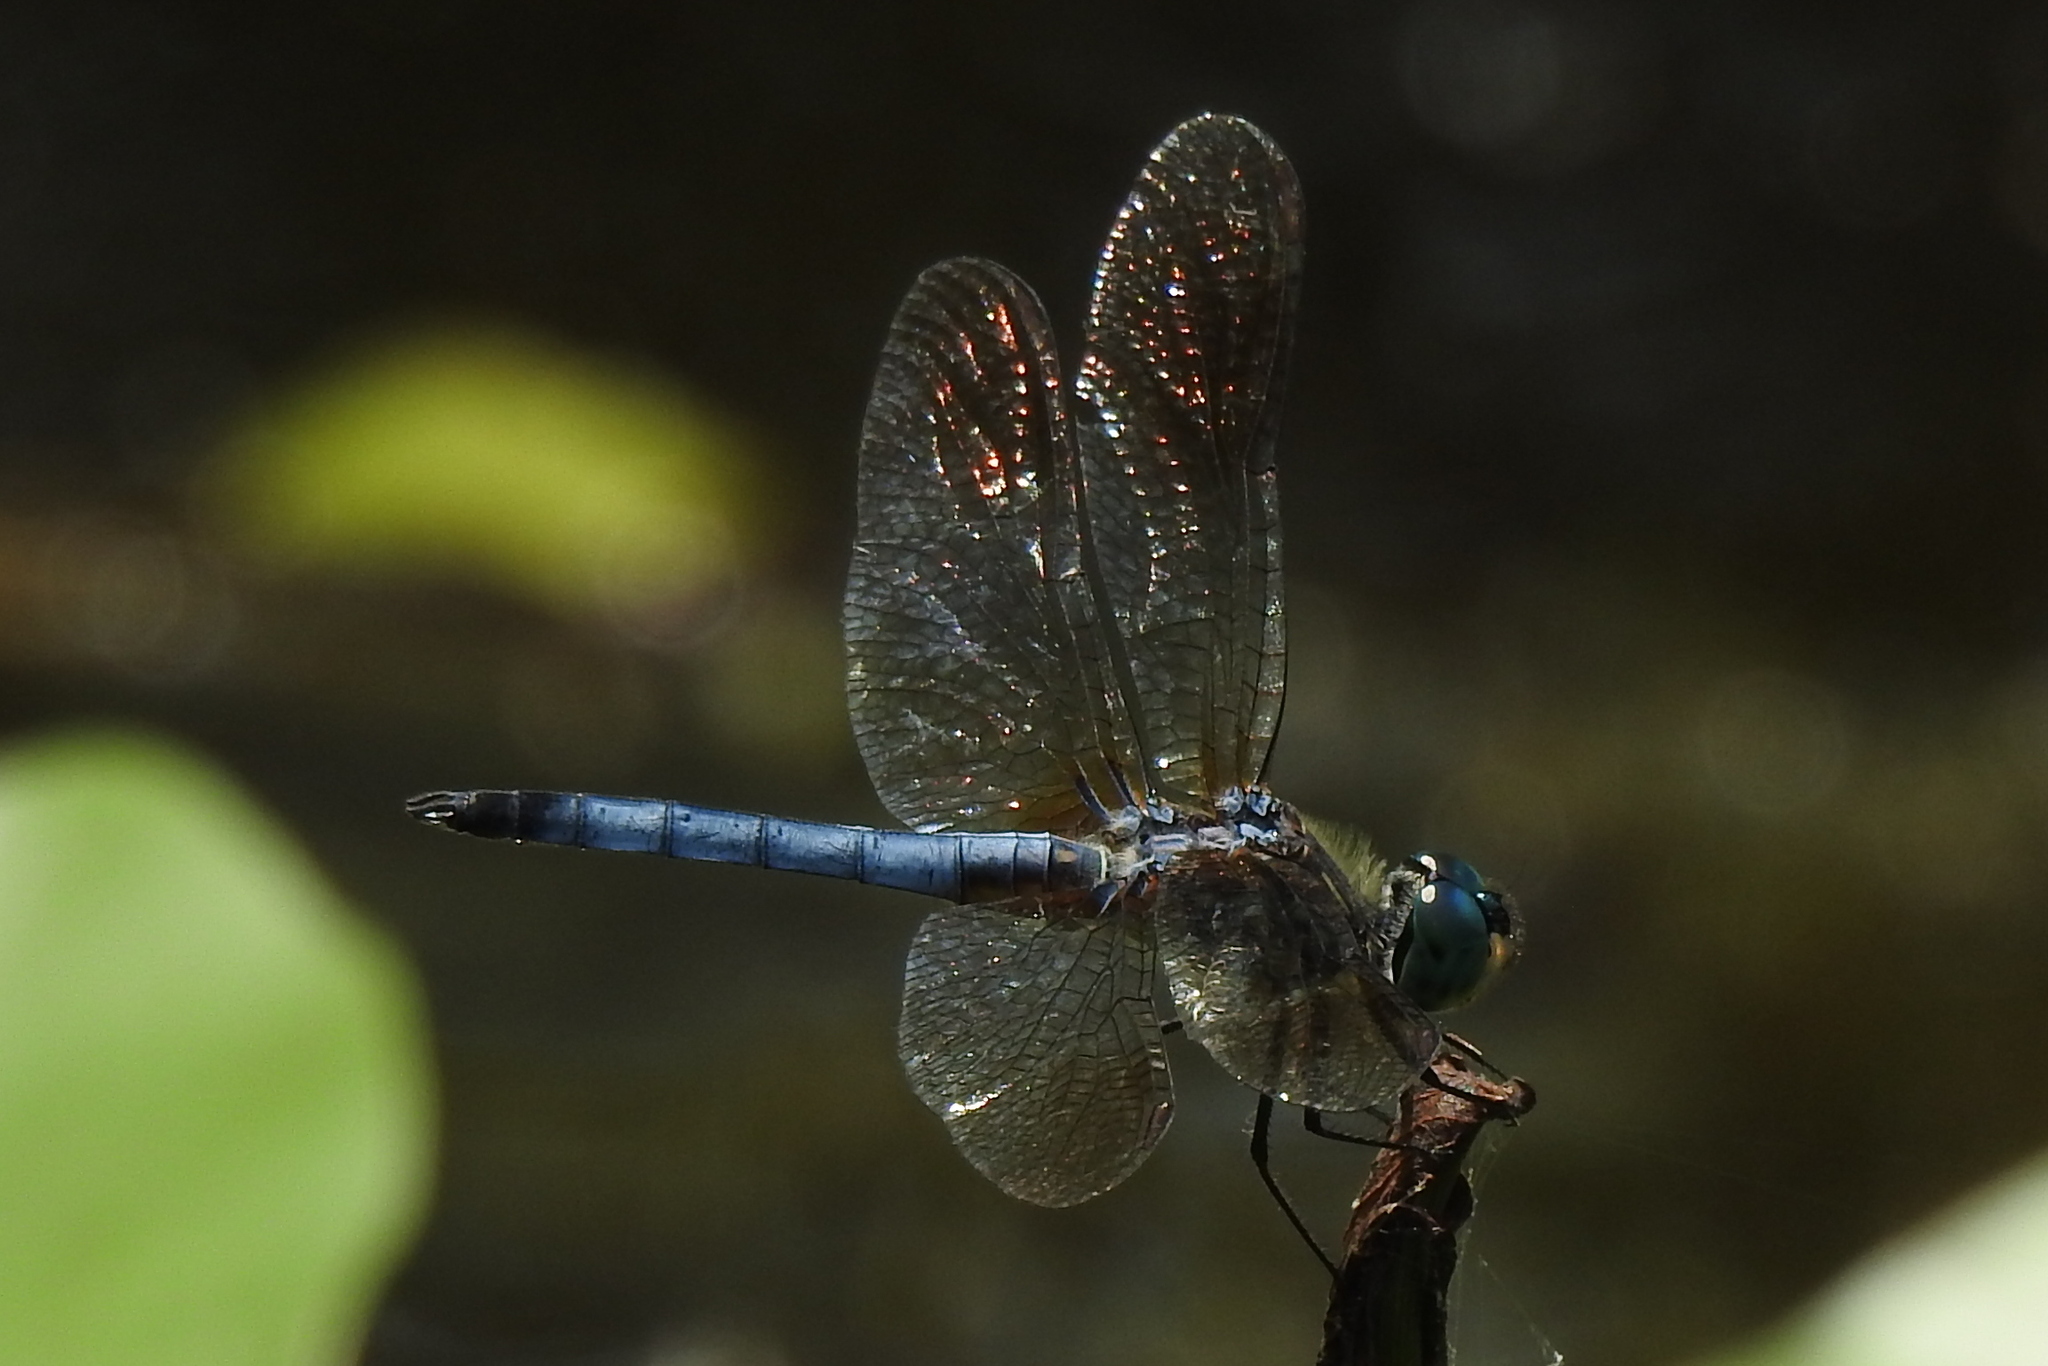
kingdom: Animalia
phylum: Arthropoda
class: Insecta
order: Odonata
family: Libellulidae
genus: Pachydiplax
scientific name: Pachydiplax longipennis
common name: Blue dasher
